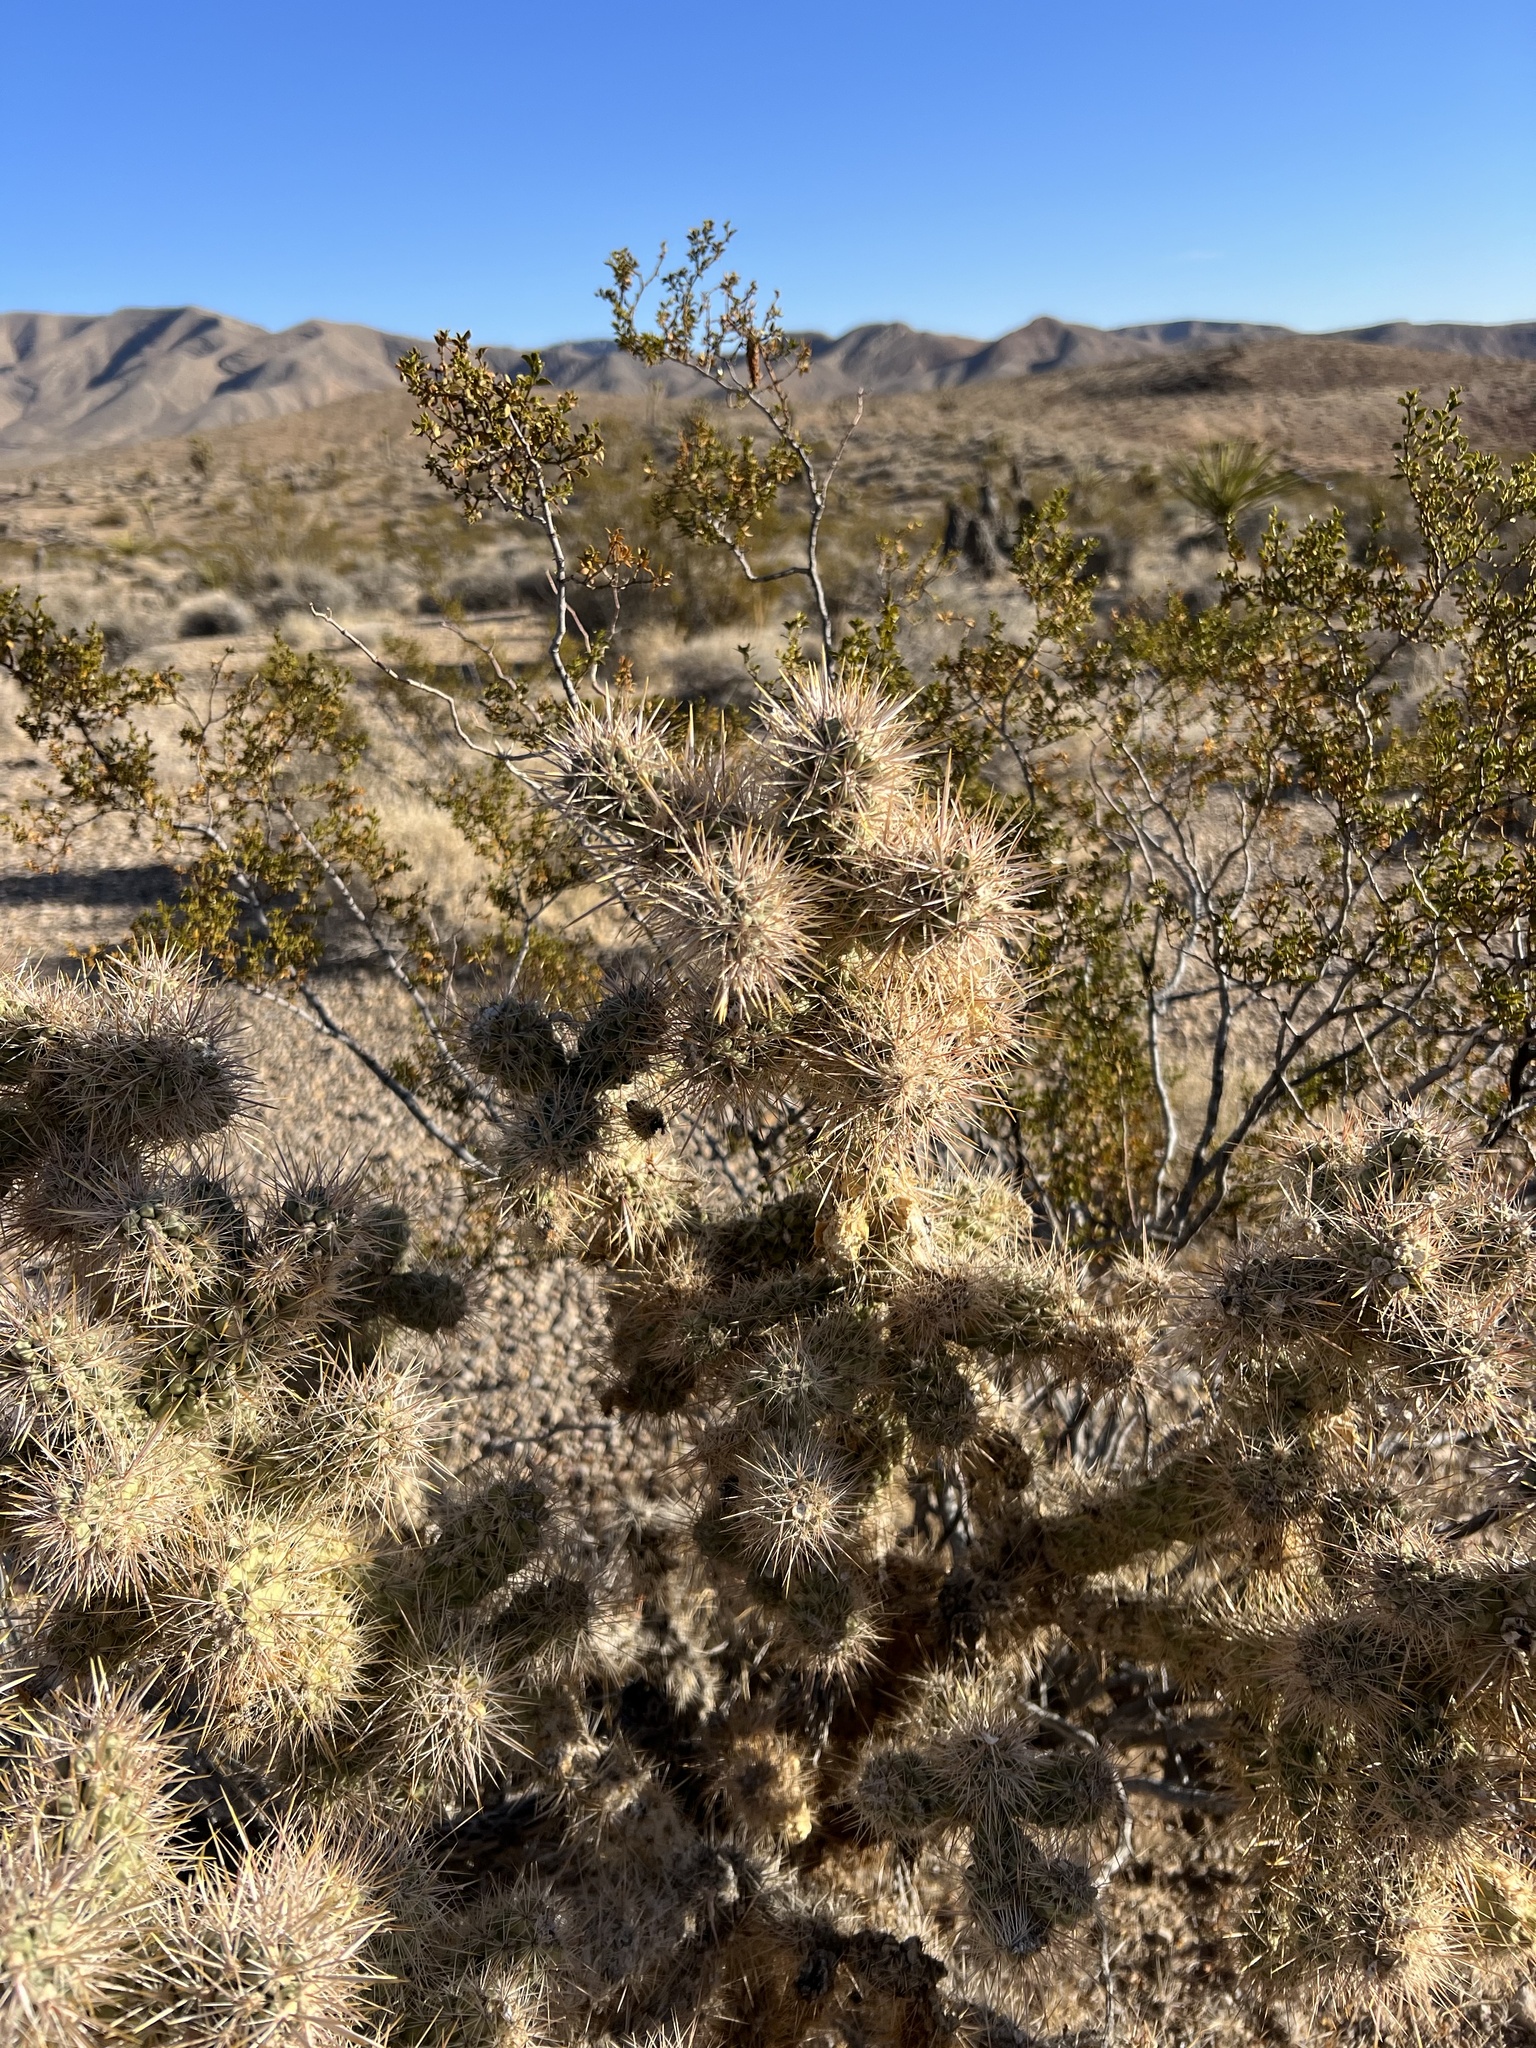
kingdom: Plantae
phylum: Tracheophyta
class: Magnoliopsida
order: Caryophyllales
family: Cactaceae
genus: Cylindropuntia
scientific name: Cylindropuntia echinocarpa
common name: Ground cholla
